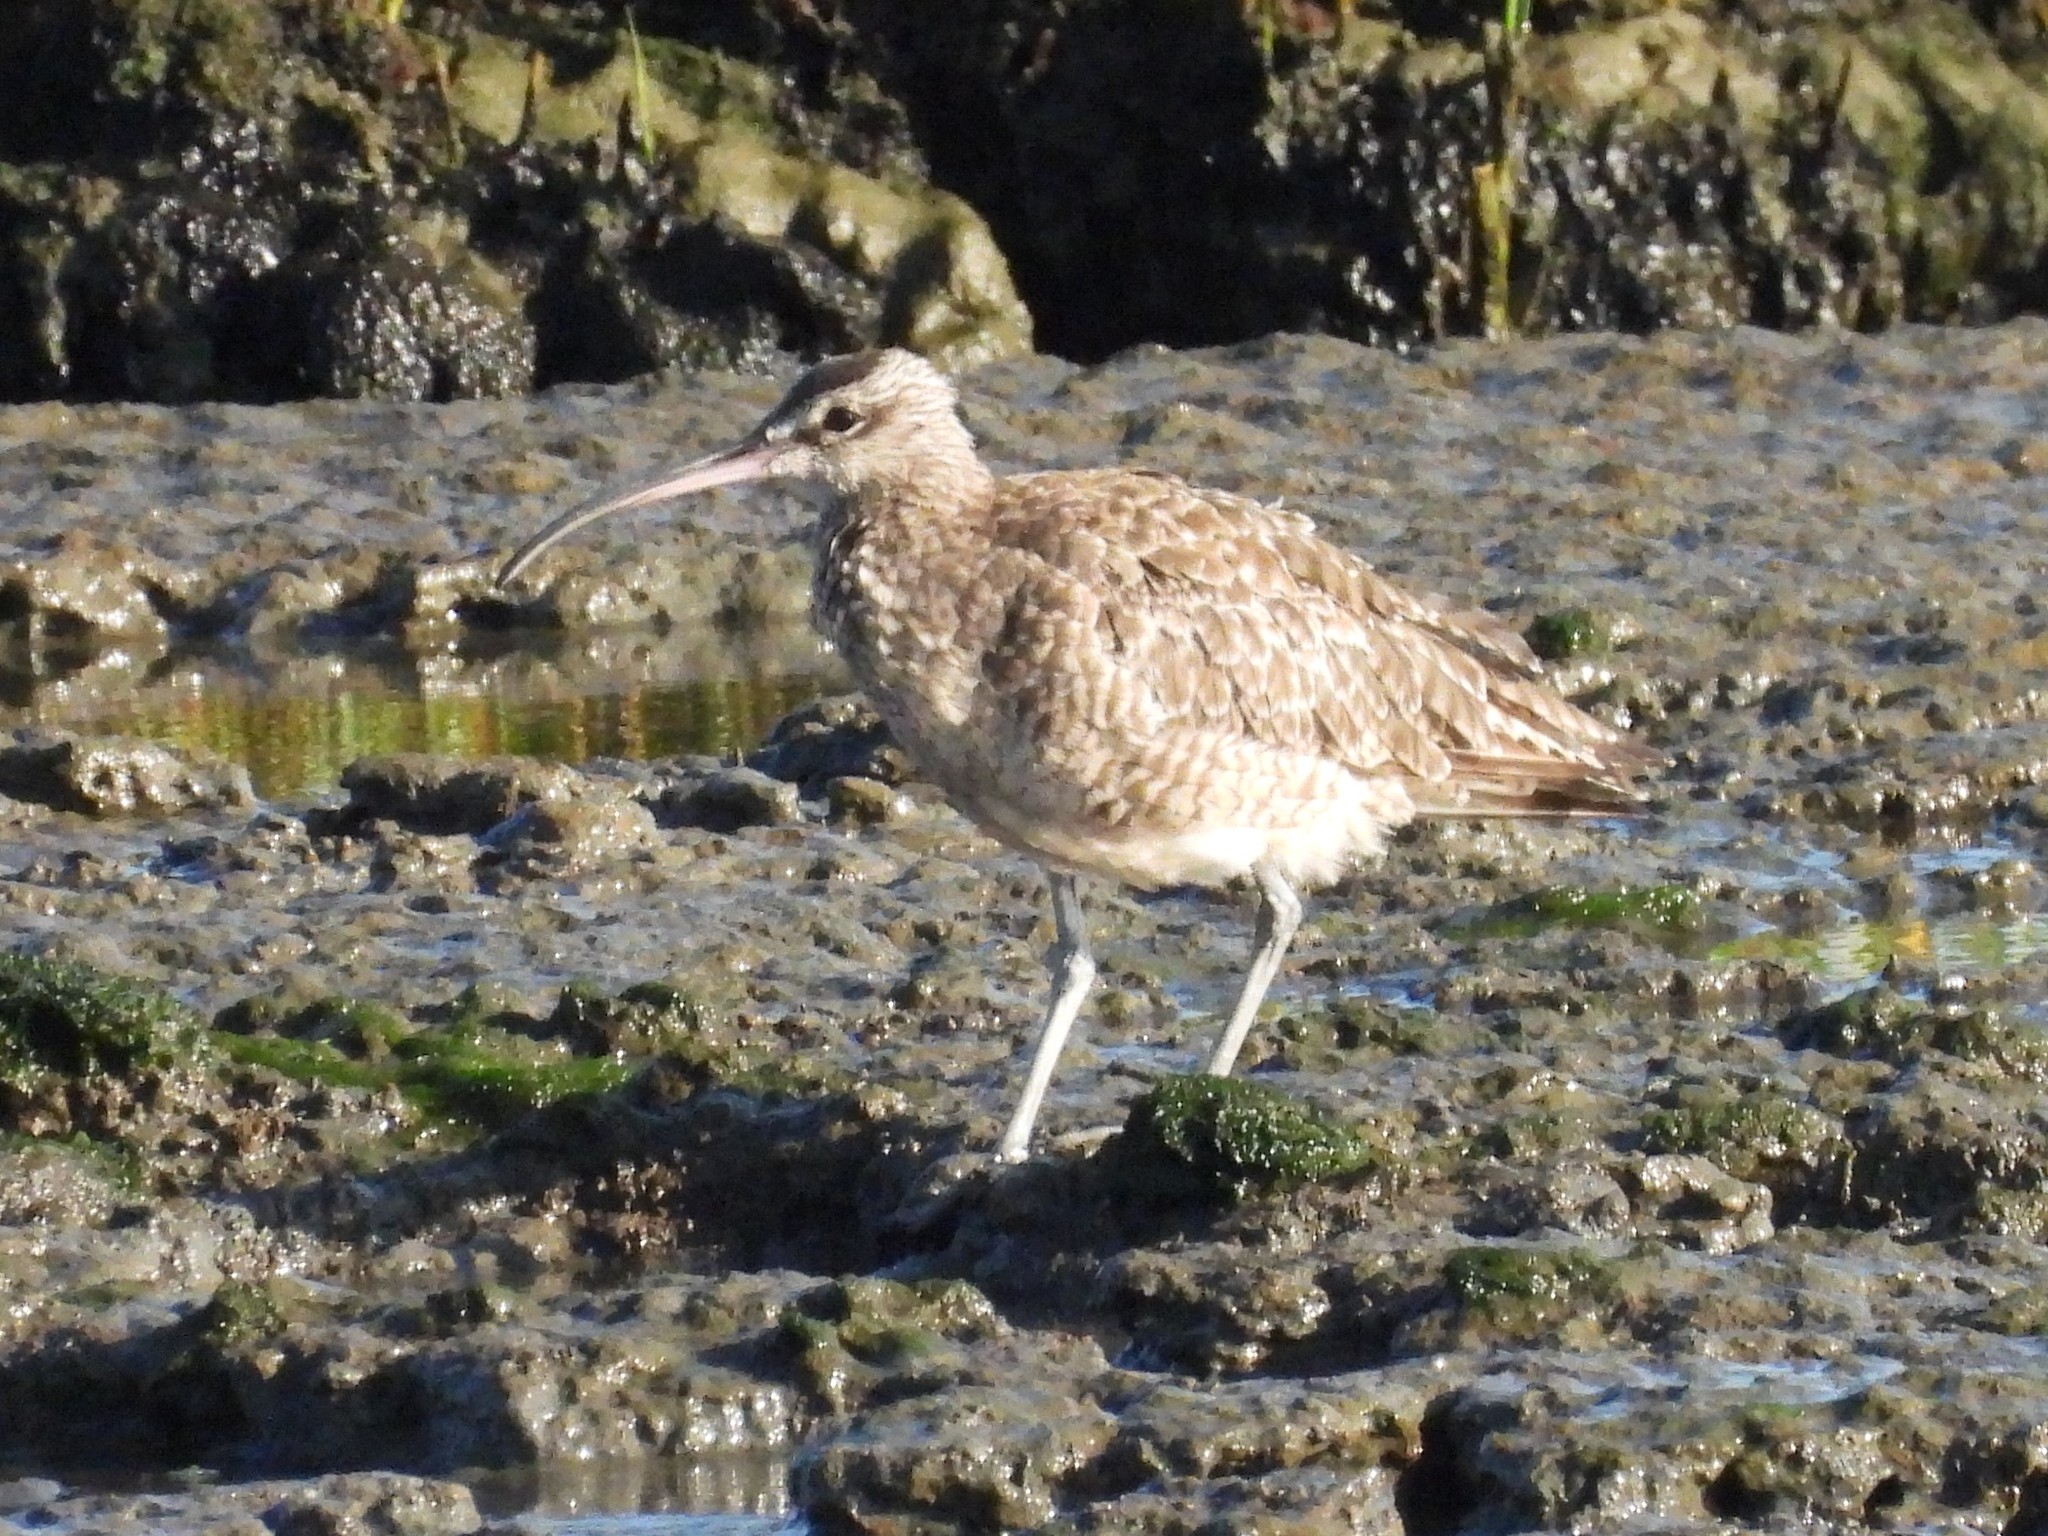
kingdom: Animalia
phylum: Chordata
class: Aves
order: Charadriiformes
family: Scolopacidae
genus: Numenius
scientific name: Numenius phaeopus
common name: Whimbrel
